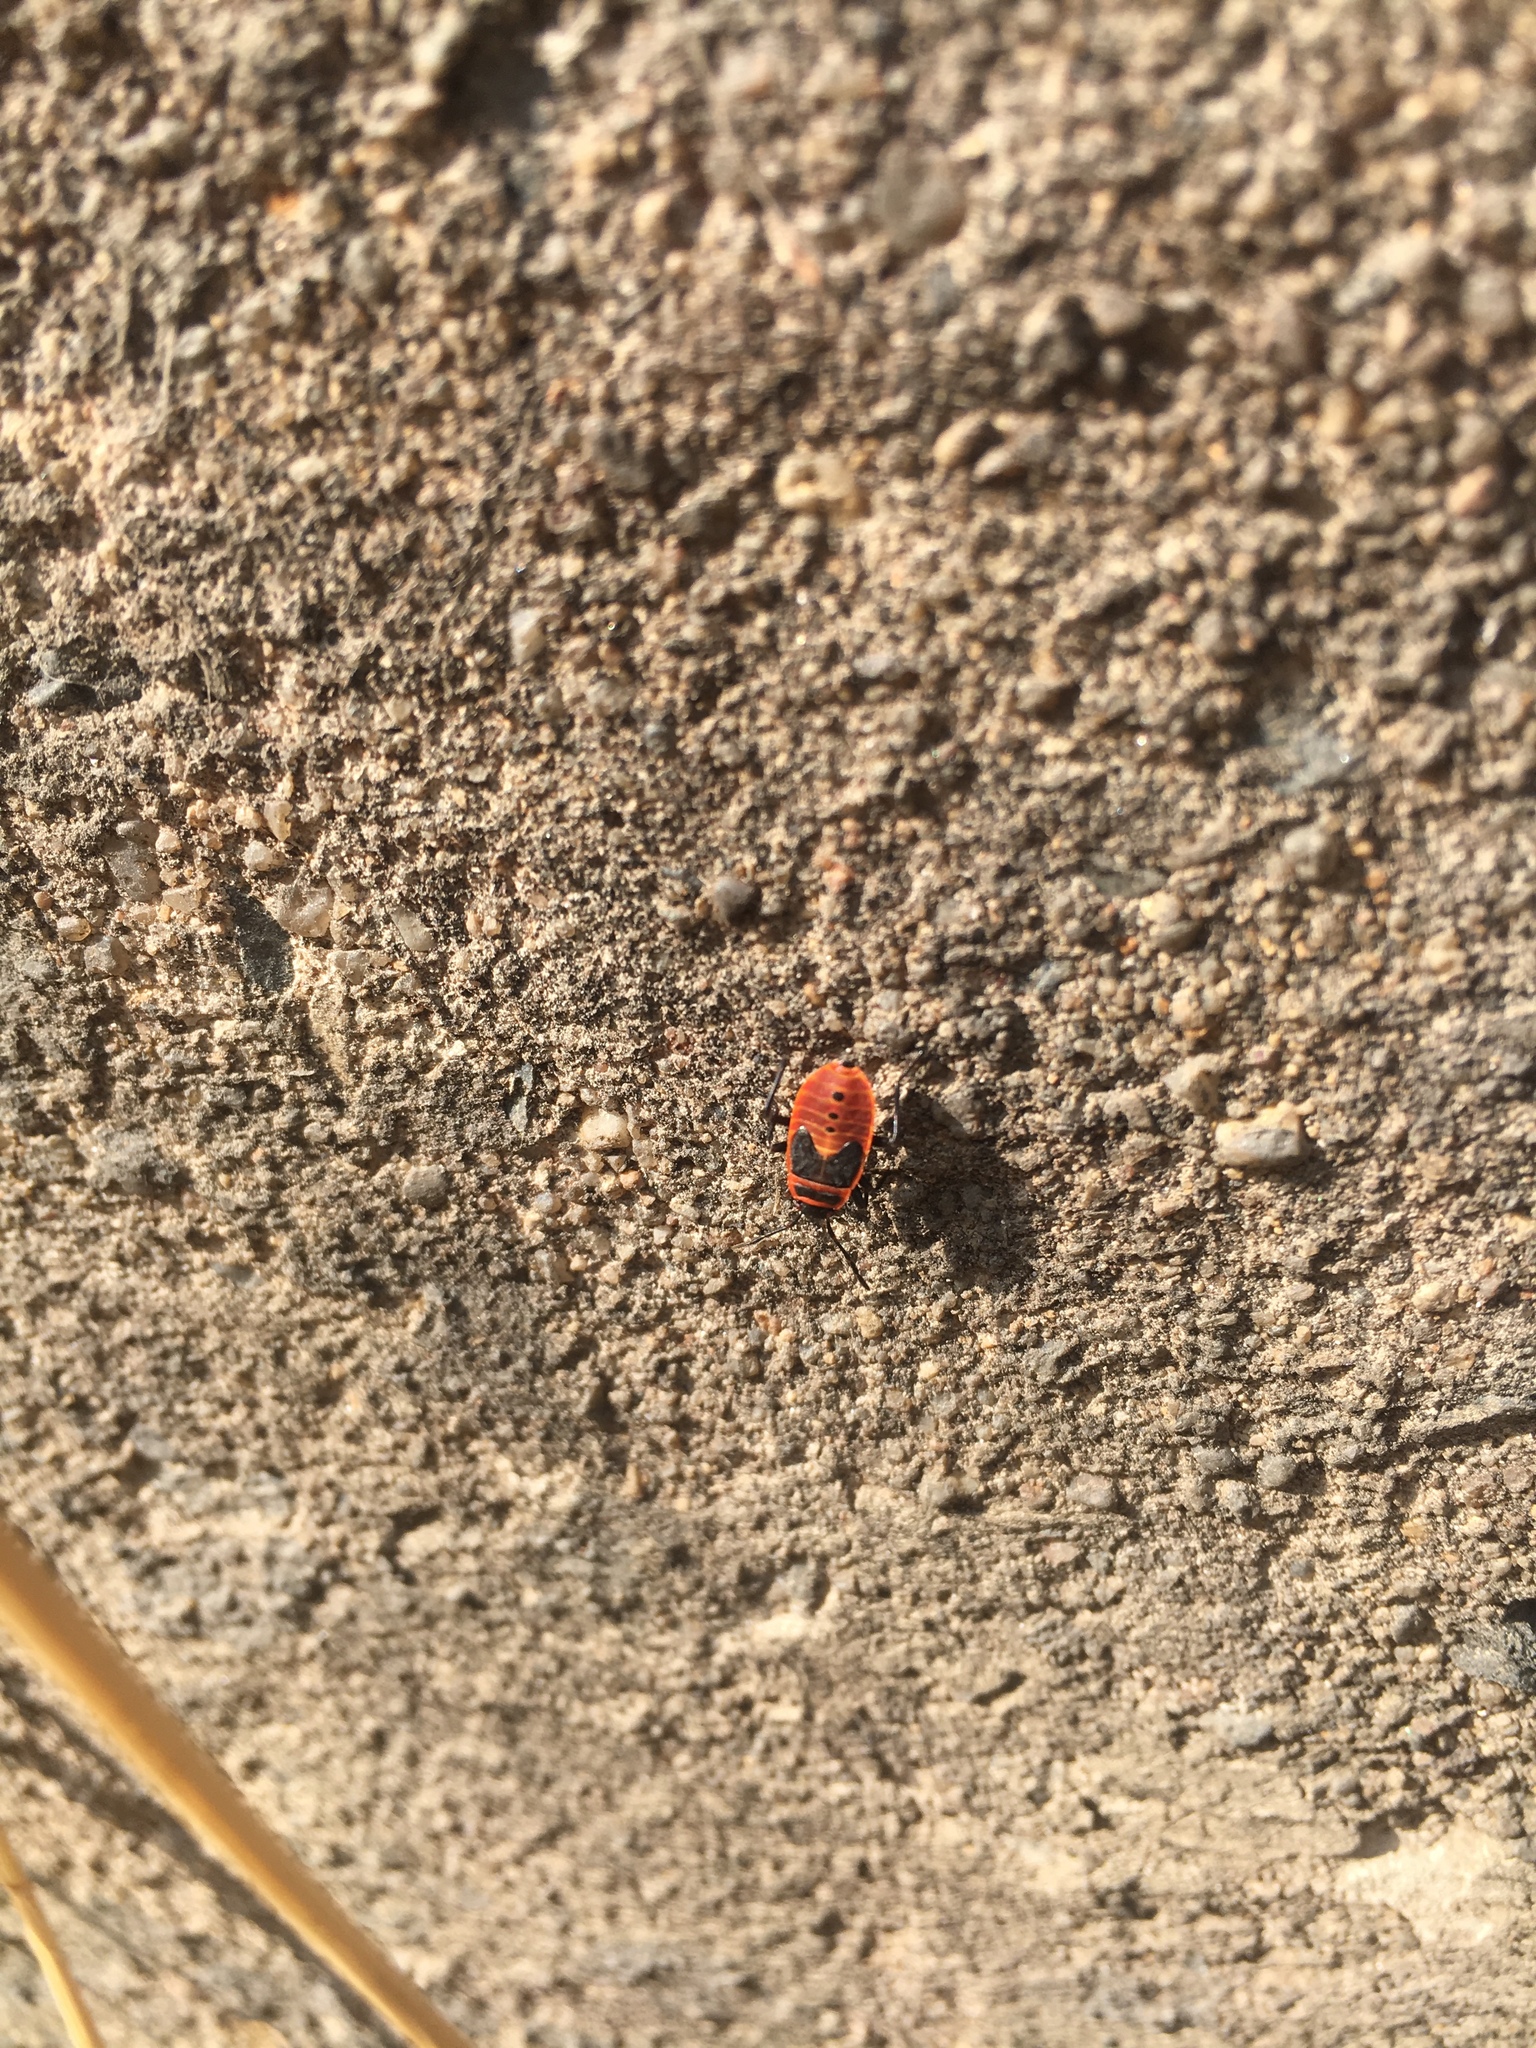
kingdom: Animalia
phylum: Arthropoda
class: Insecta
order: Hemiptera
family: Pyrrhocoridae
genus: Pyrrhocoris
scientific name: Pyrrhocoris apterus
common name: Firebug
